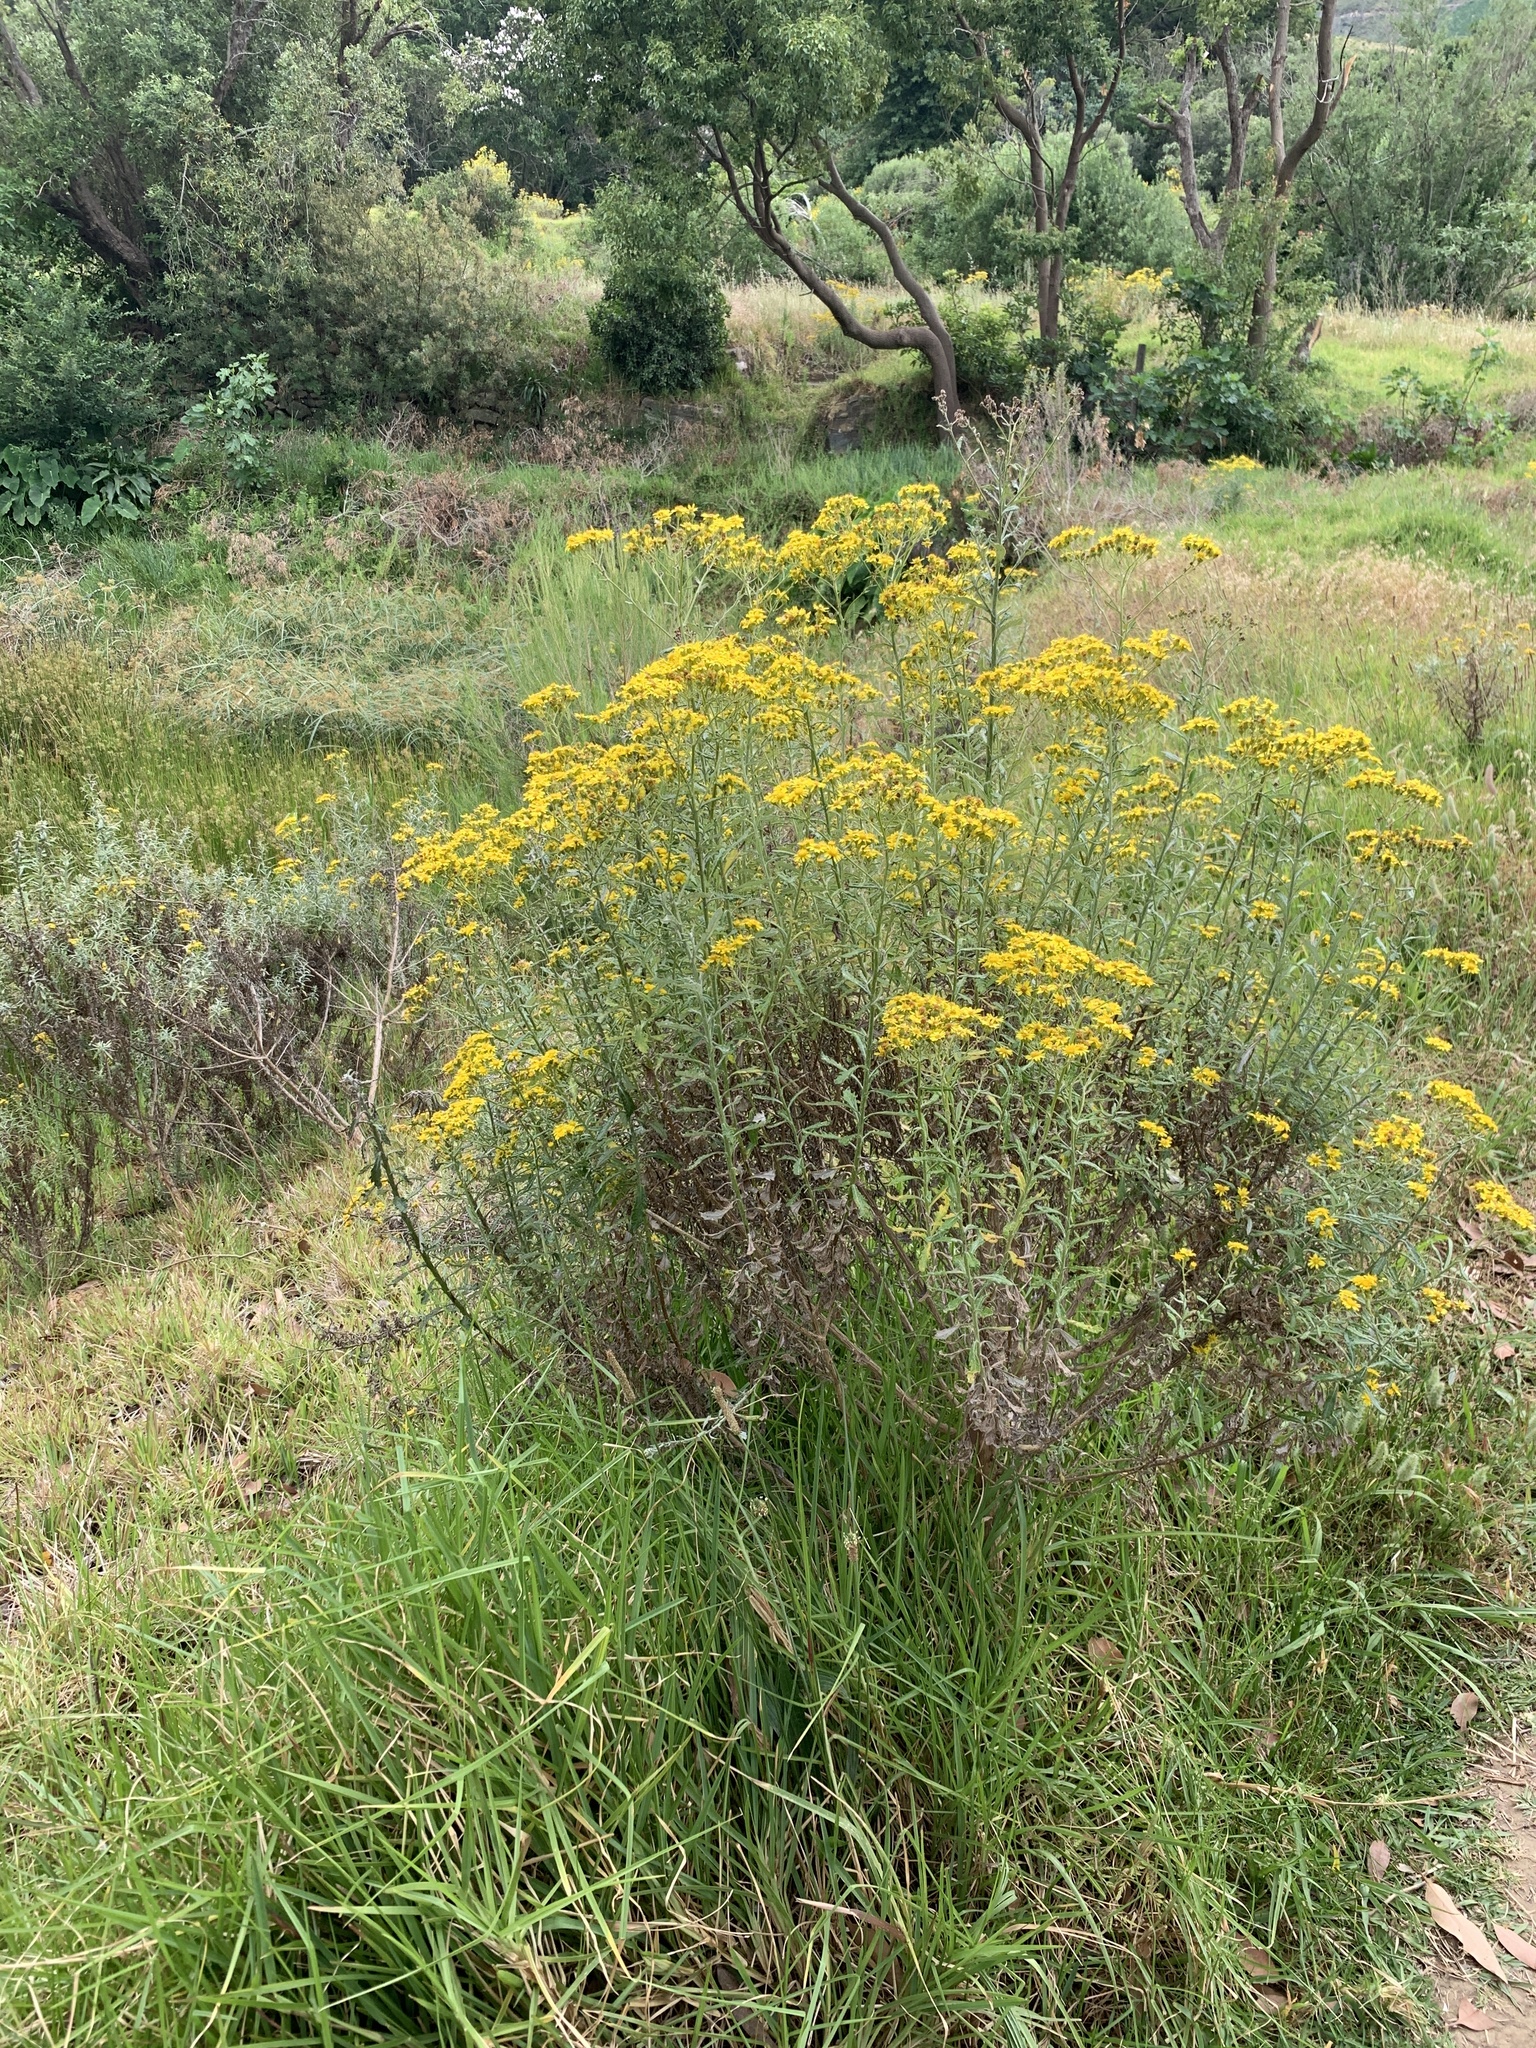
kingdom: Plantae
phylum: Tracheophyta
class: Magnoliopsida
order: Asterales
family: Asteraceae
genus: Senecio
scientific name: Senecio pterophorus
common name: Shoddy ragwort
